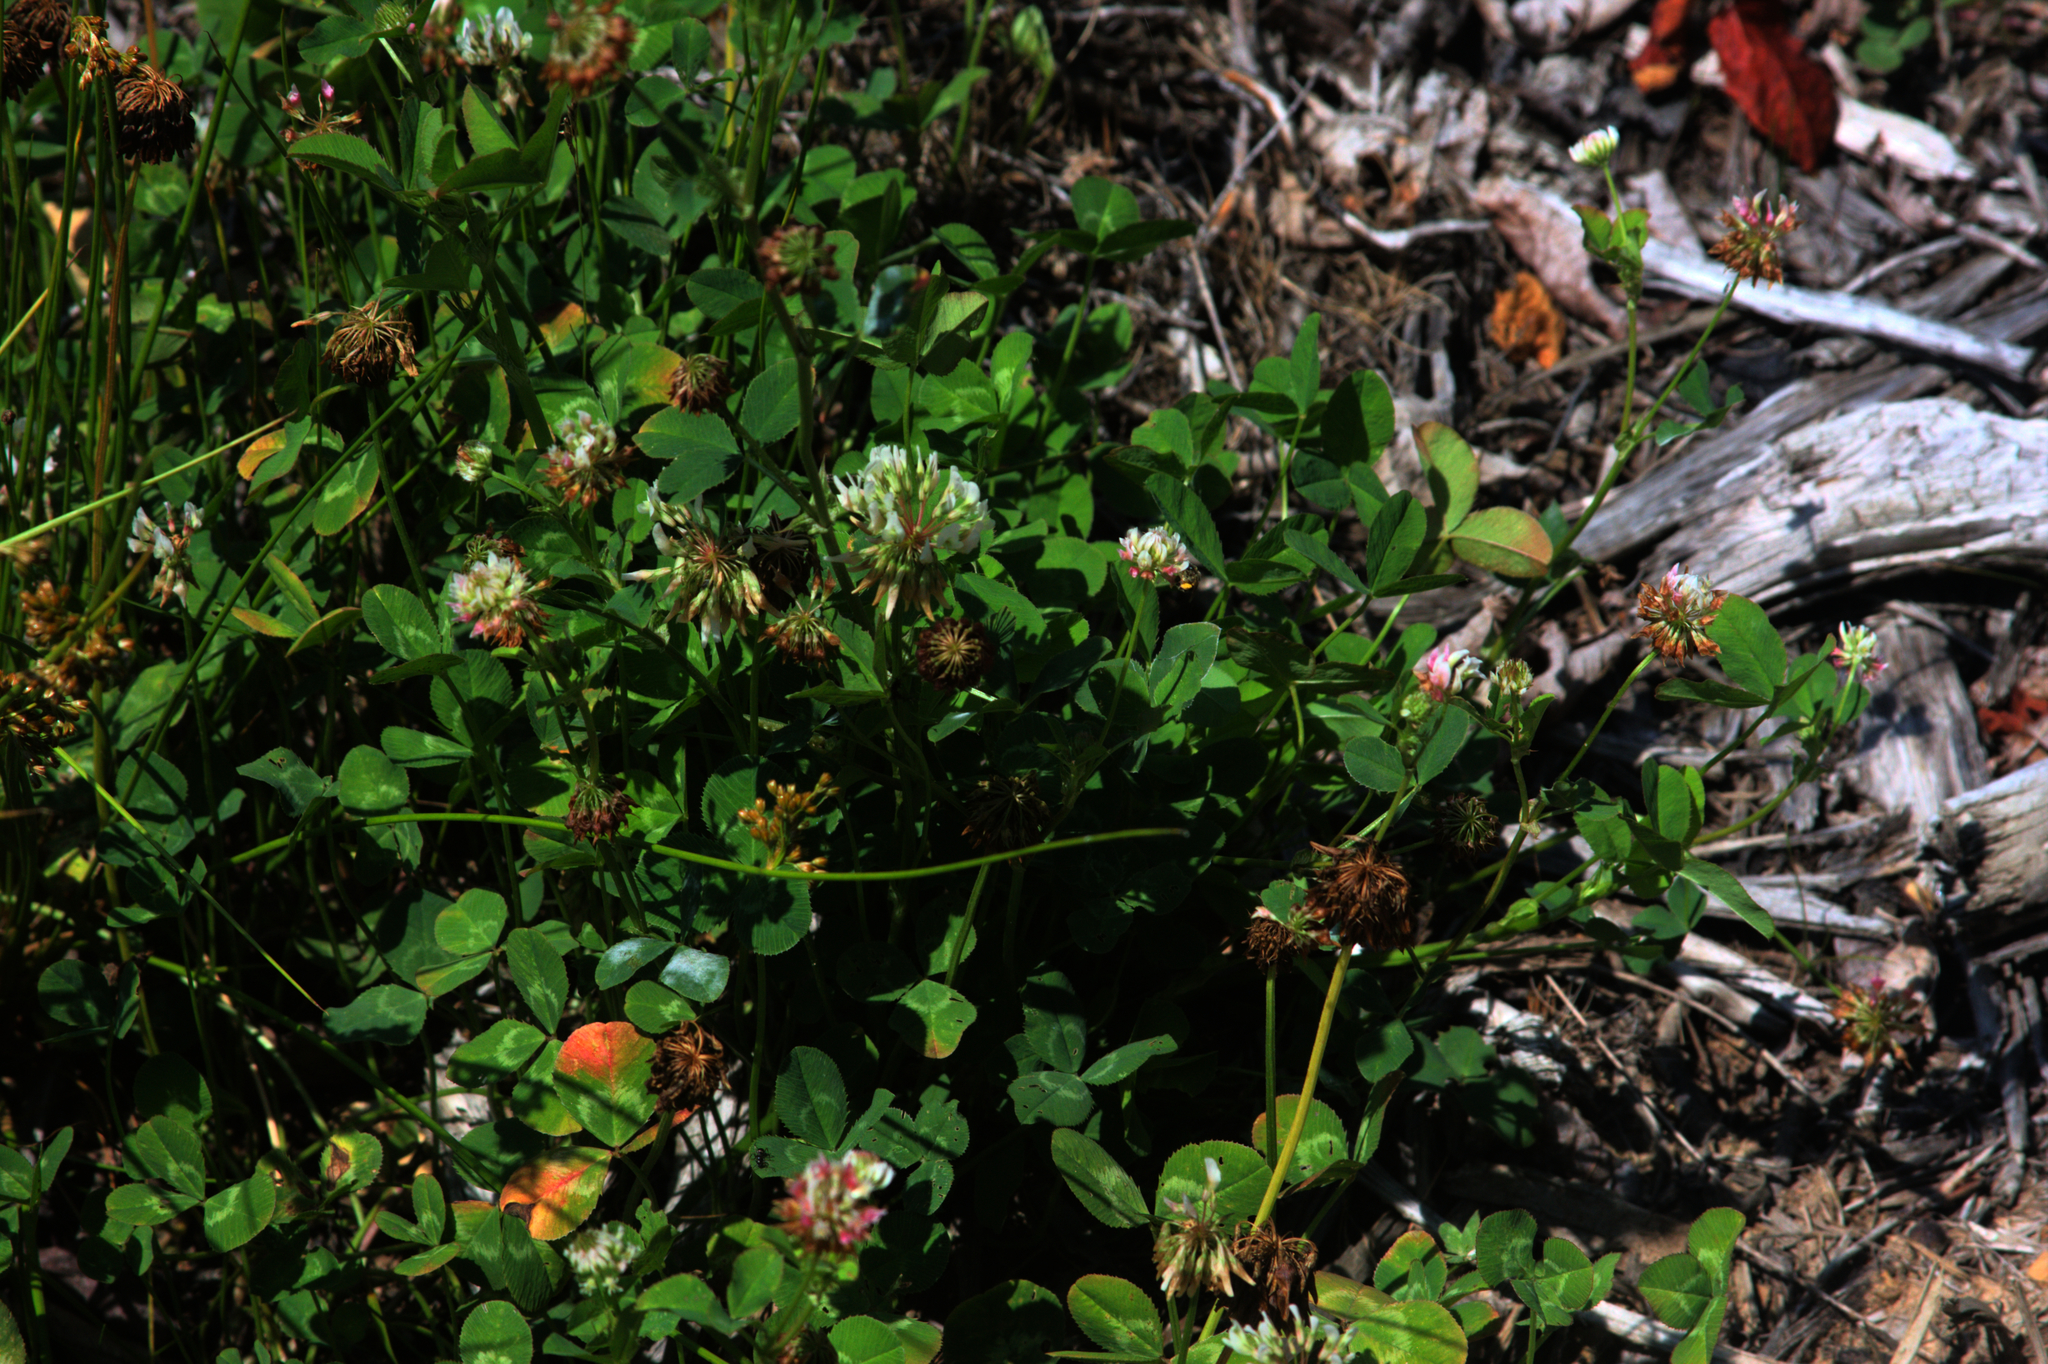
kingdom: Plantae
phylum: Tracheophyta
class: Magnoliopsida
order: Fabales
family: Fabaceae
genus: Trifolium
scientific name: Trifolium repens
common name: White clover
